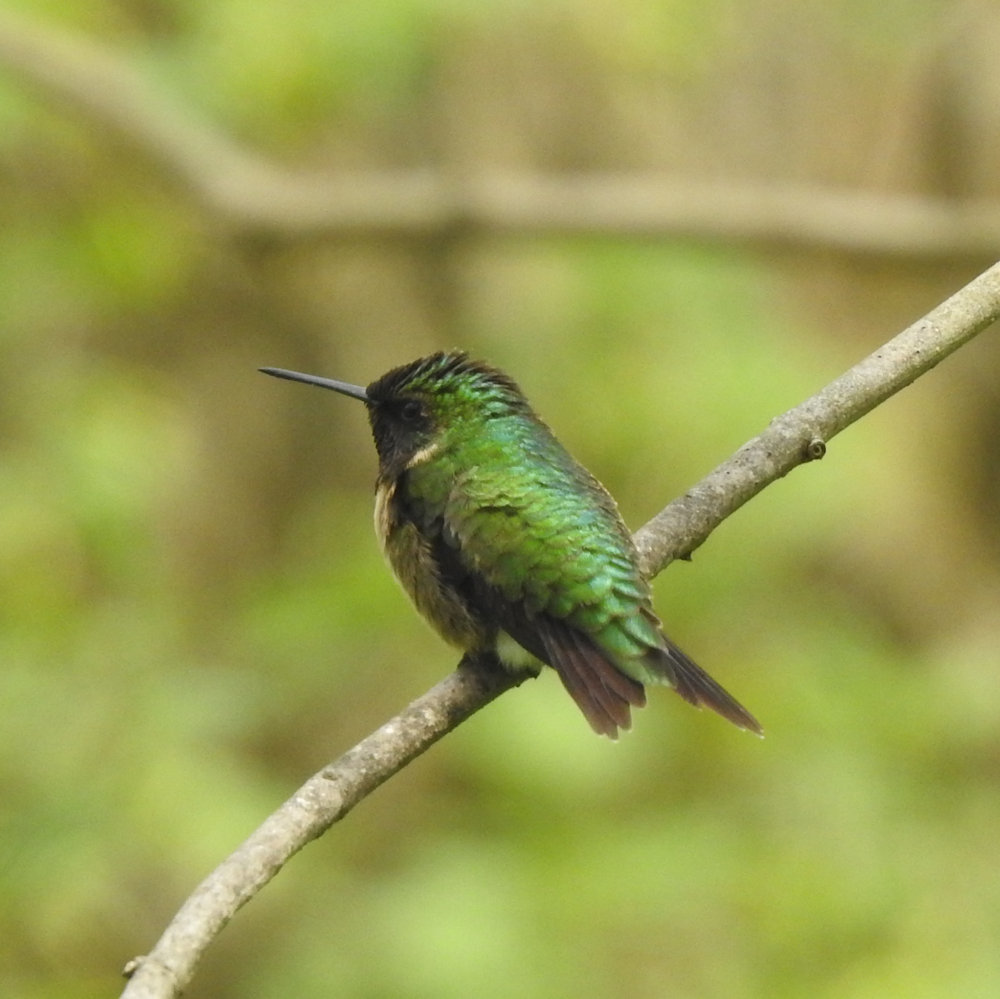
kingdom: Animalia
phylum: Chordata
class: Aves
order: Apodiformes
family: Trochilidae
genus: Archilochus
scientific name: Archilochus colubris
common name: Ruby-throated hummingbird
